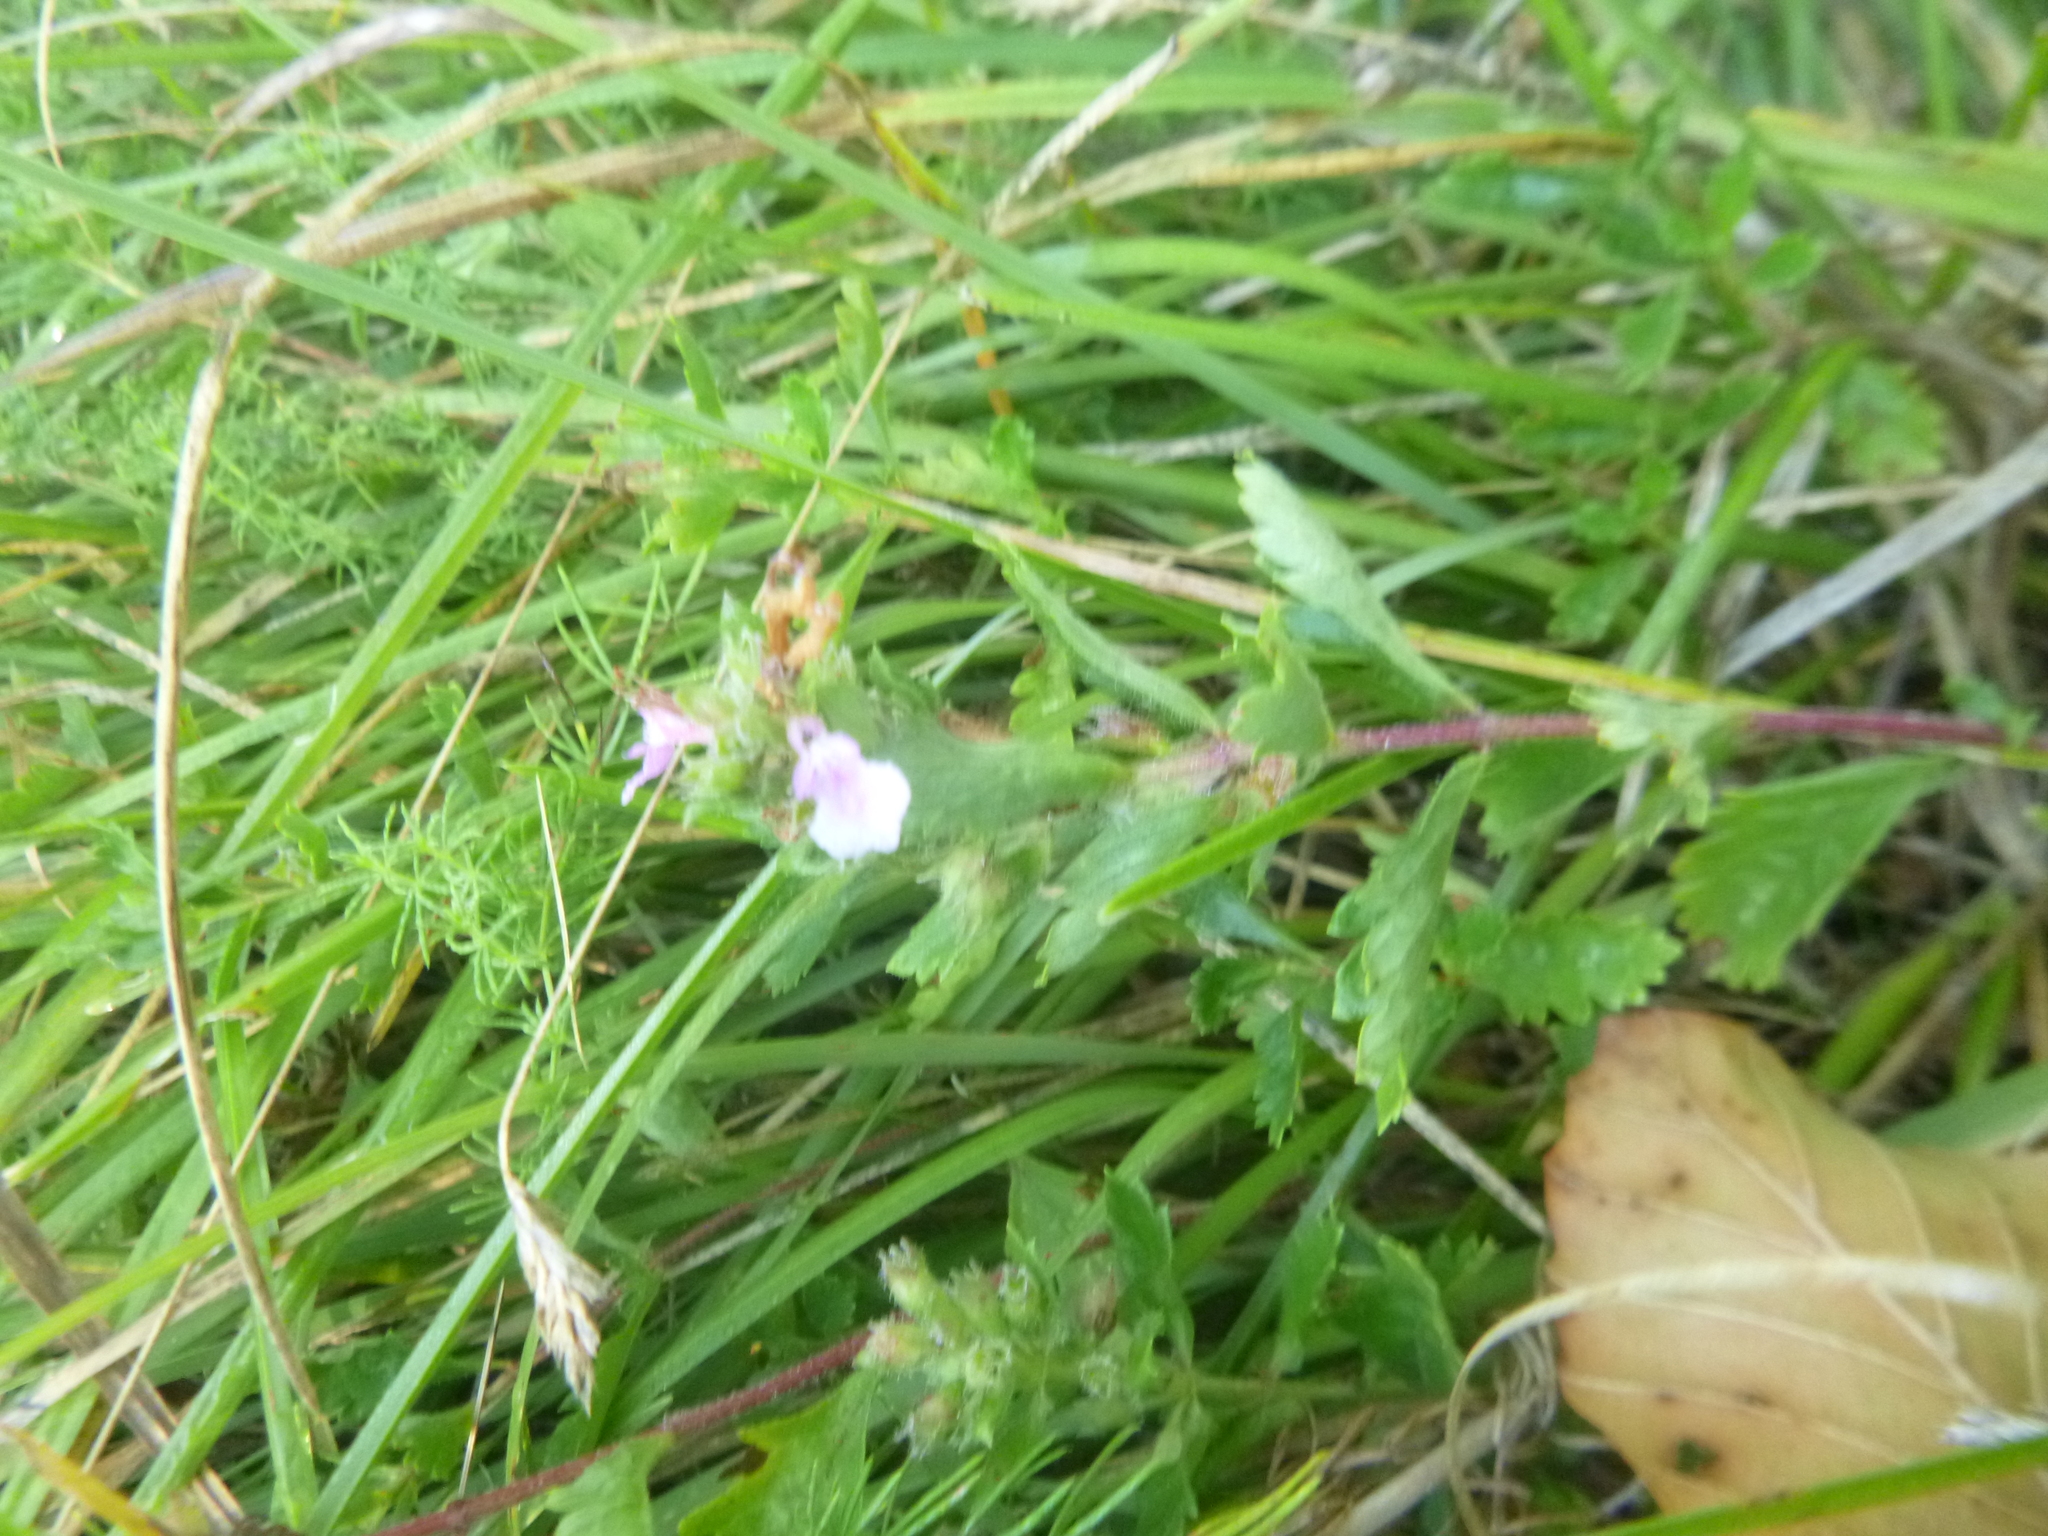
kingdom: Plantae
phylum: Tracheophyta
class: Magnoliopsida
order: Lamiales
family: Lamiaceae
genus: Teucrium
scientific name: Teucrium chamaedrys
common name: Wall germander
